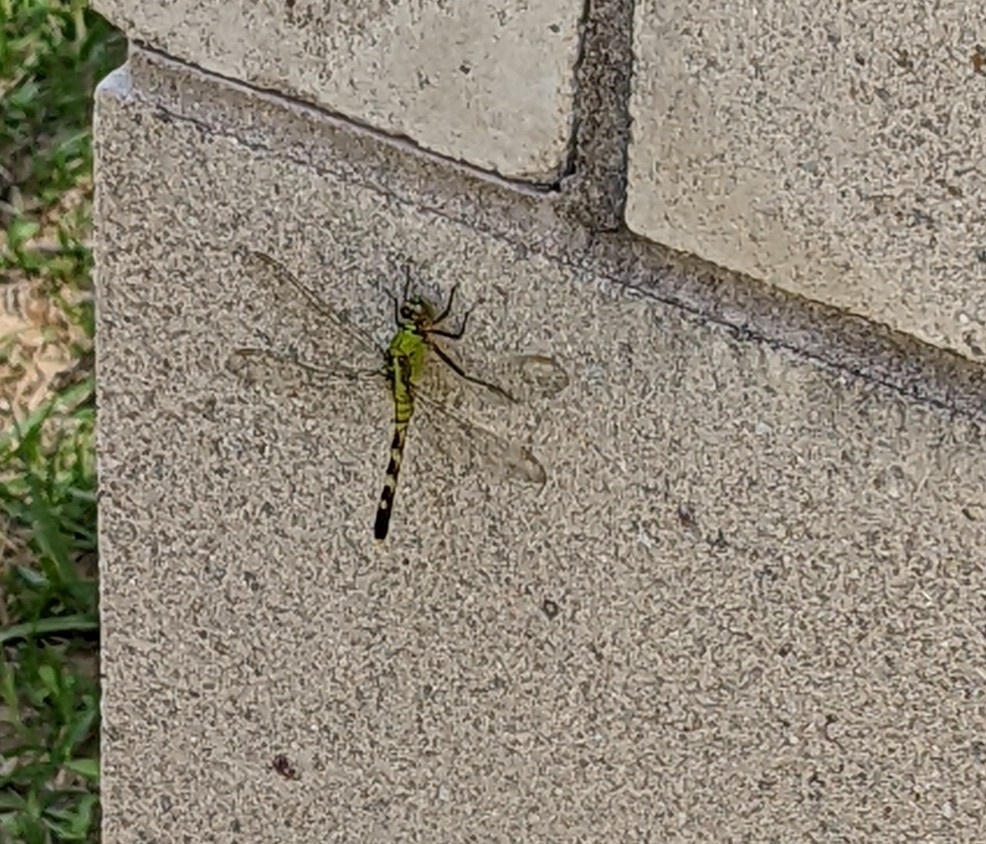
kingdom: Animalia
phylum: Arthropoda
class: Insecta
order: Odonata
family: Libellulidae
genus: Erythemis
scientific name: Erythemis simplicicollis
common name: Eastern pondhawk
